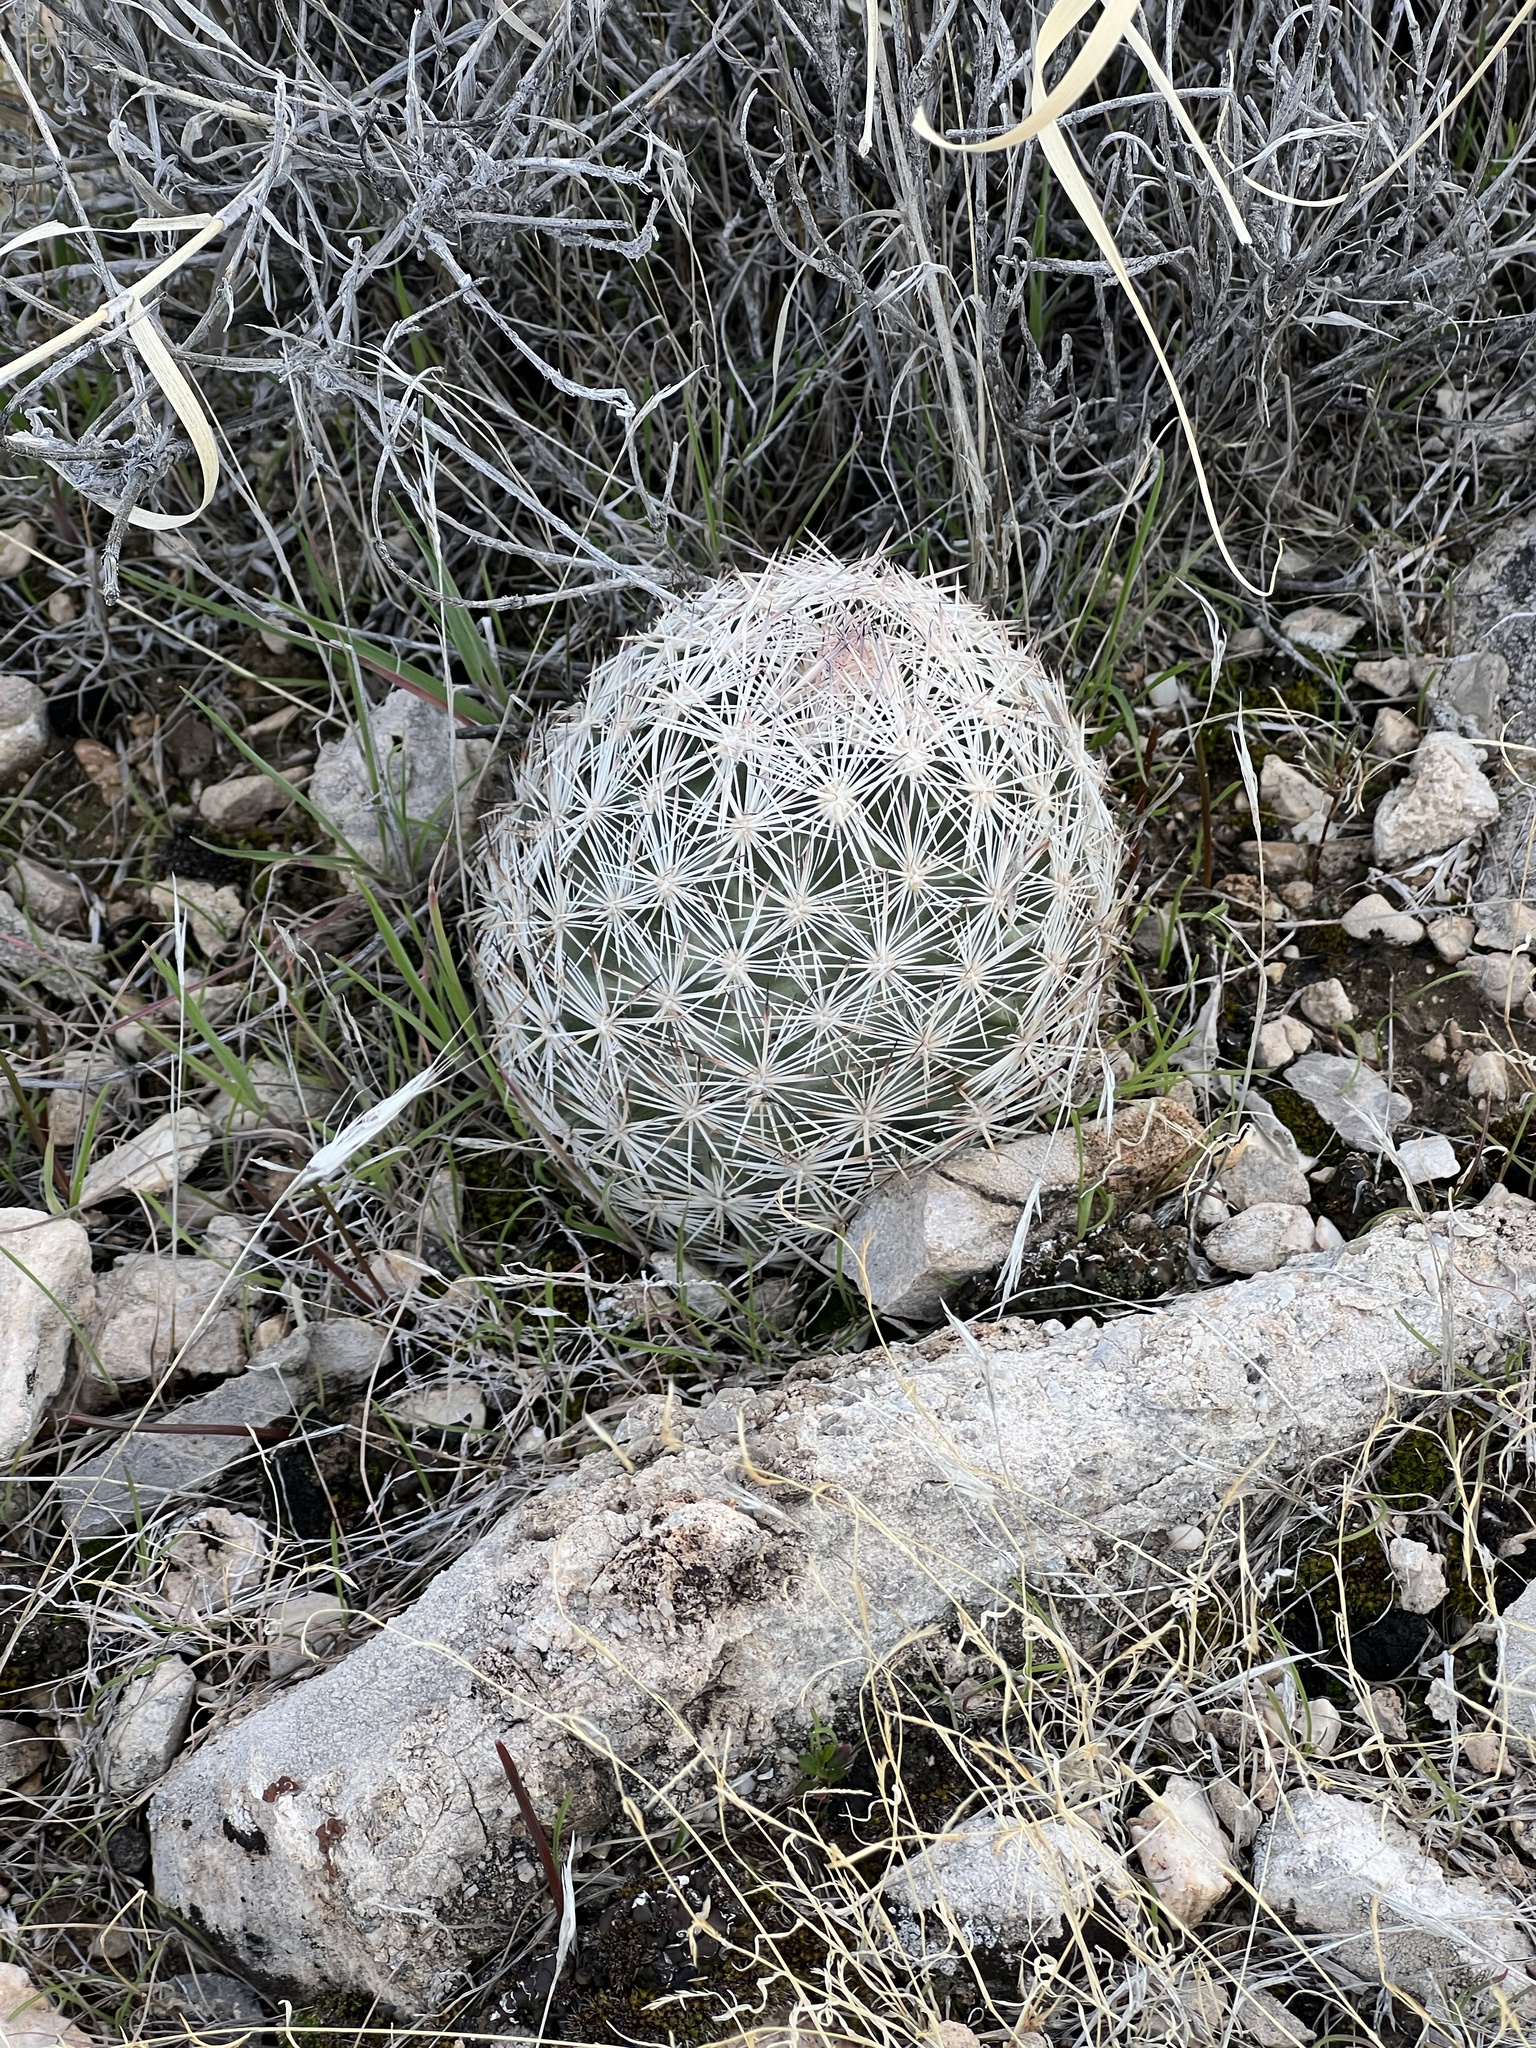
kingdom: Plantae
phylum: Tracheophyta
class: Magnoliopsida
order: Caryophyllales
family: Cactaceae
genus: Pelecyphora
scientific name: Pelecyphora dasyacantha
